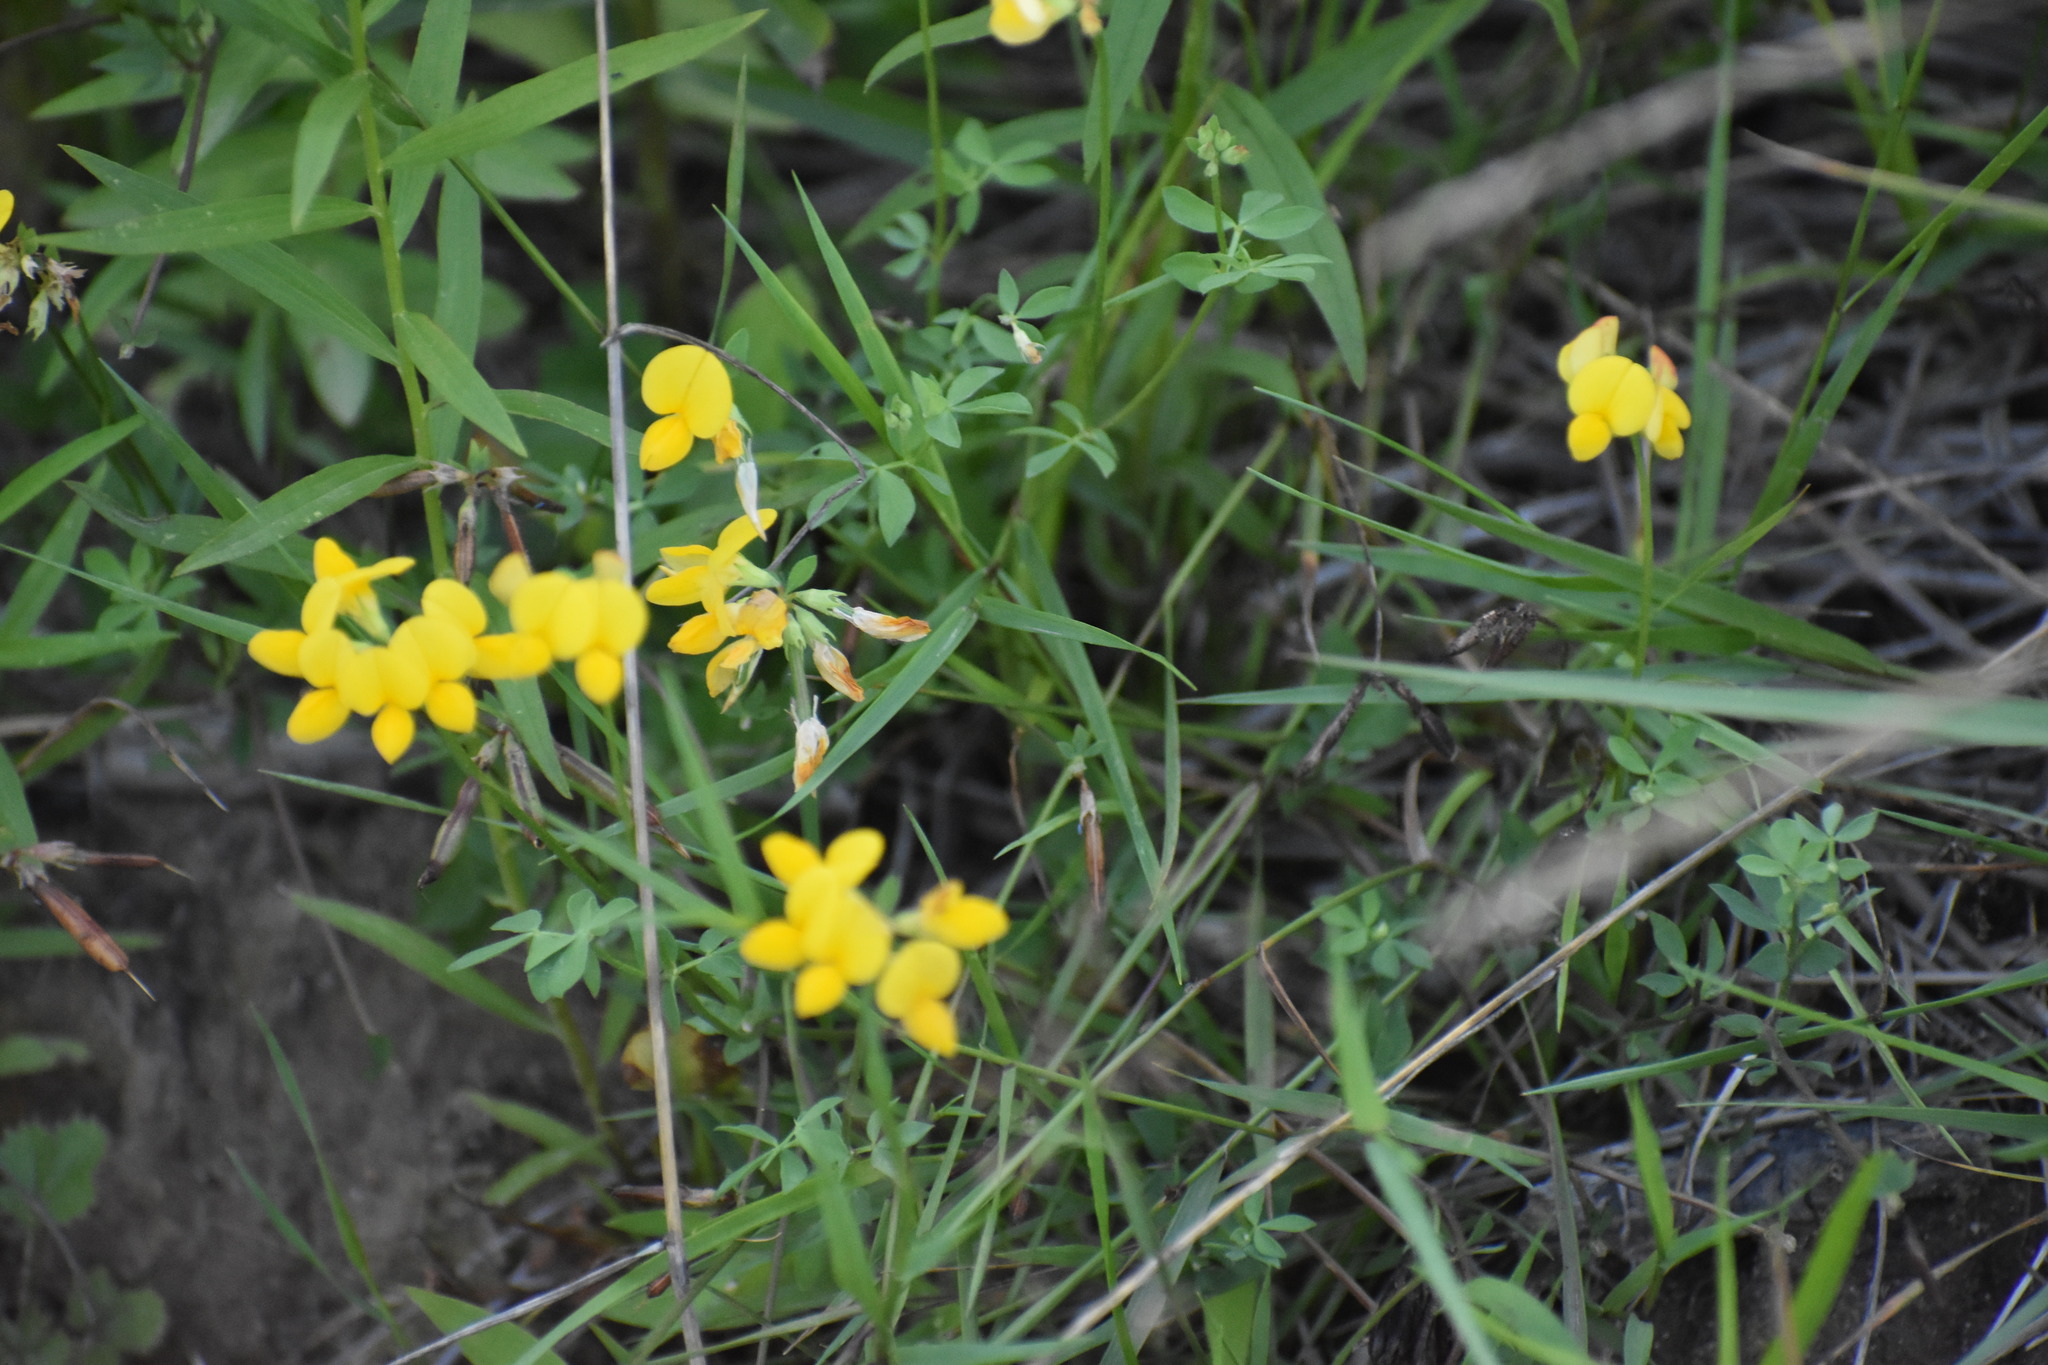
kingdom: Plantae
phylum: Tracheophyta
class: Magnoliopsida
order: Fabales
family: Fabaceae
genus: Lotus
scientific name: Lotus corniculatus
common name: Common bird's-foot-trefoil
